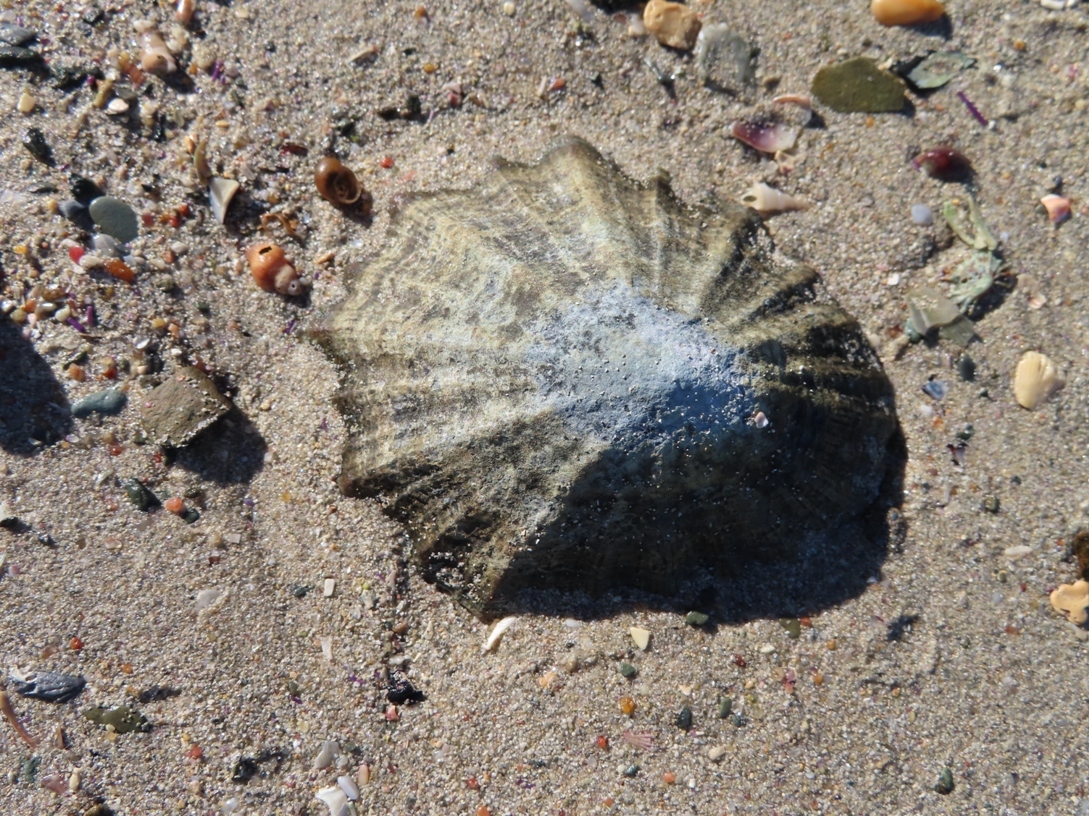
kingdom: Animalia
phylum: Mollusca
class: Gastropoda
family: Patellidae
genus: Cymbula
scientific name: Cymbula oculus
